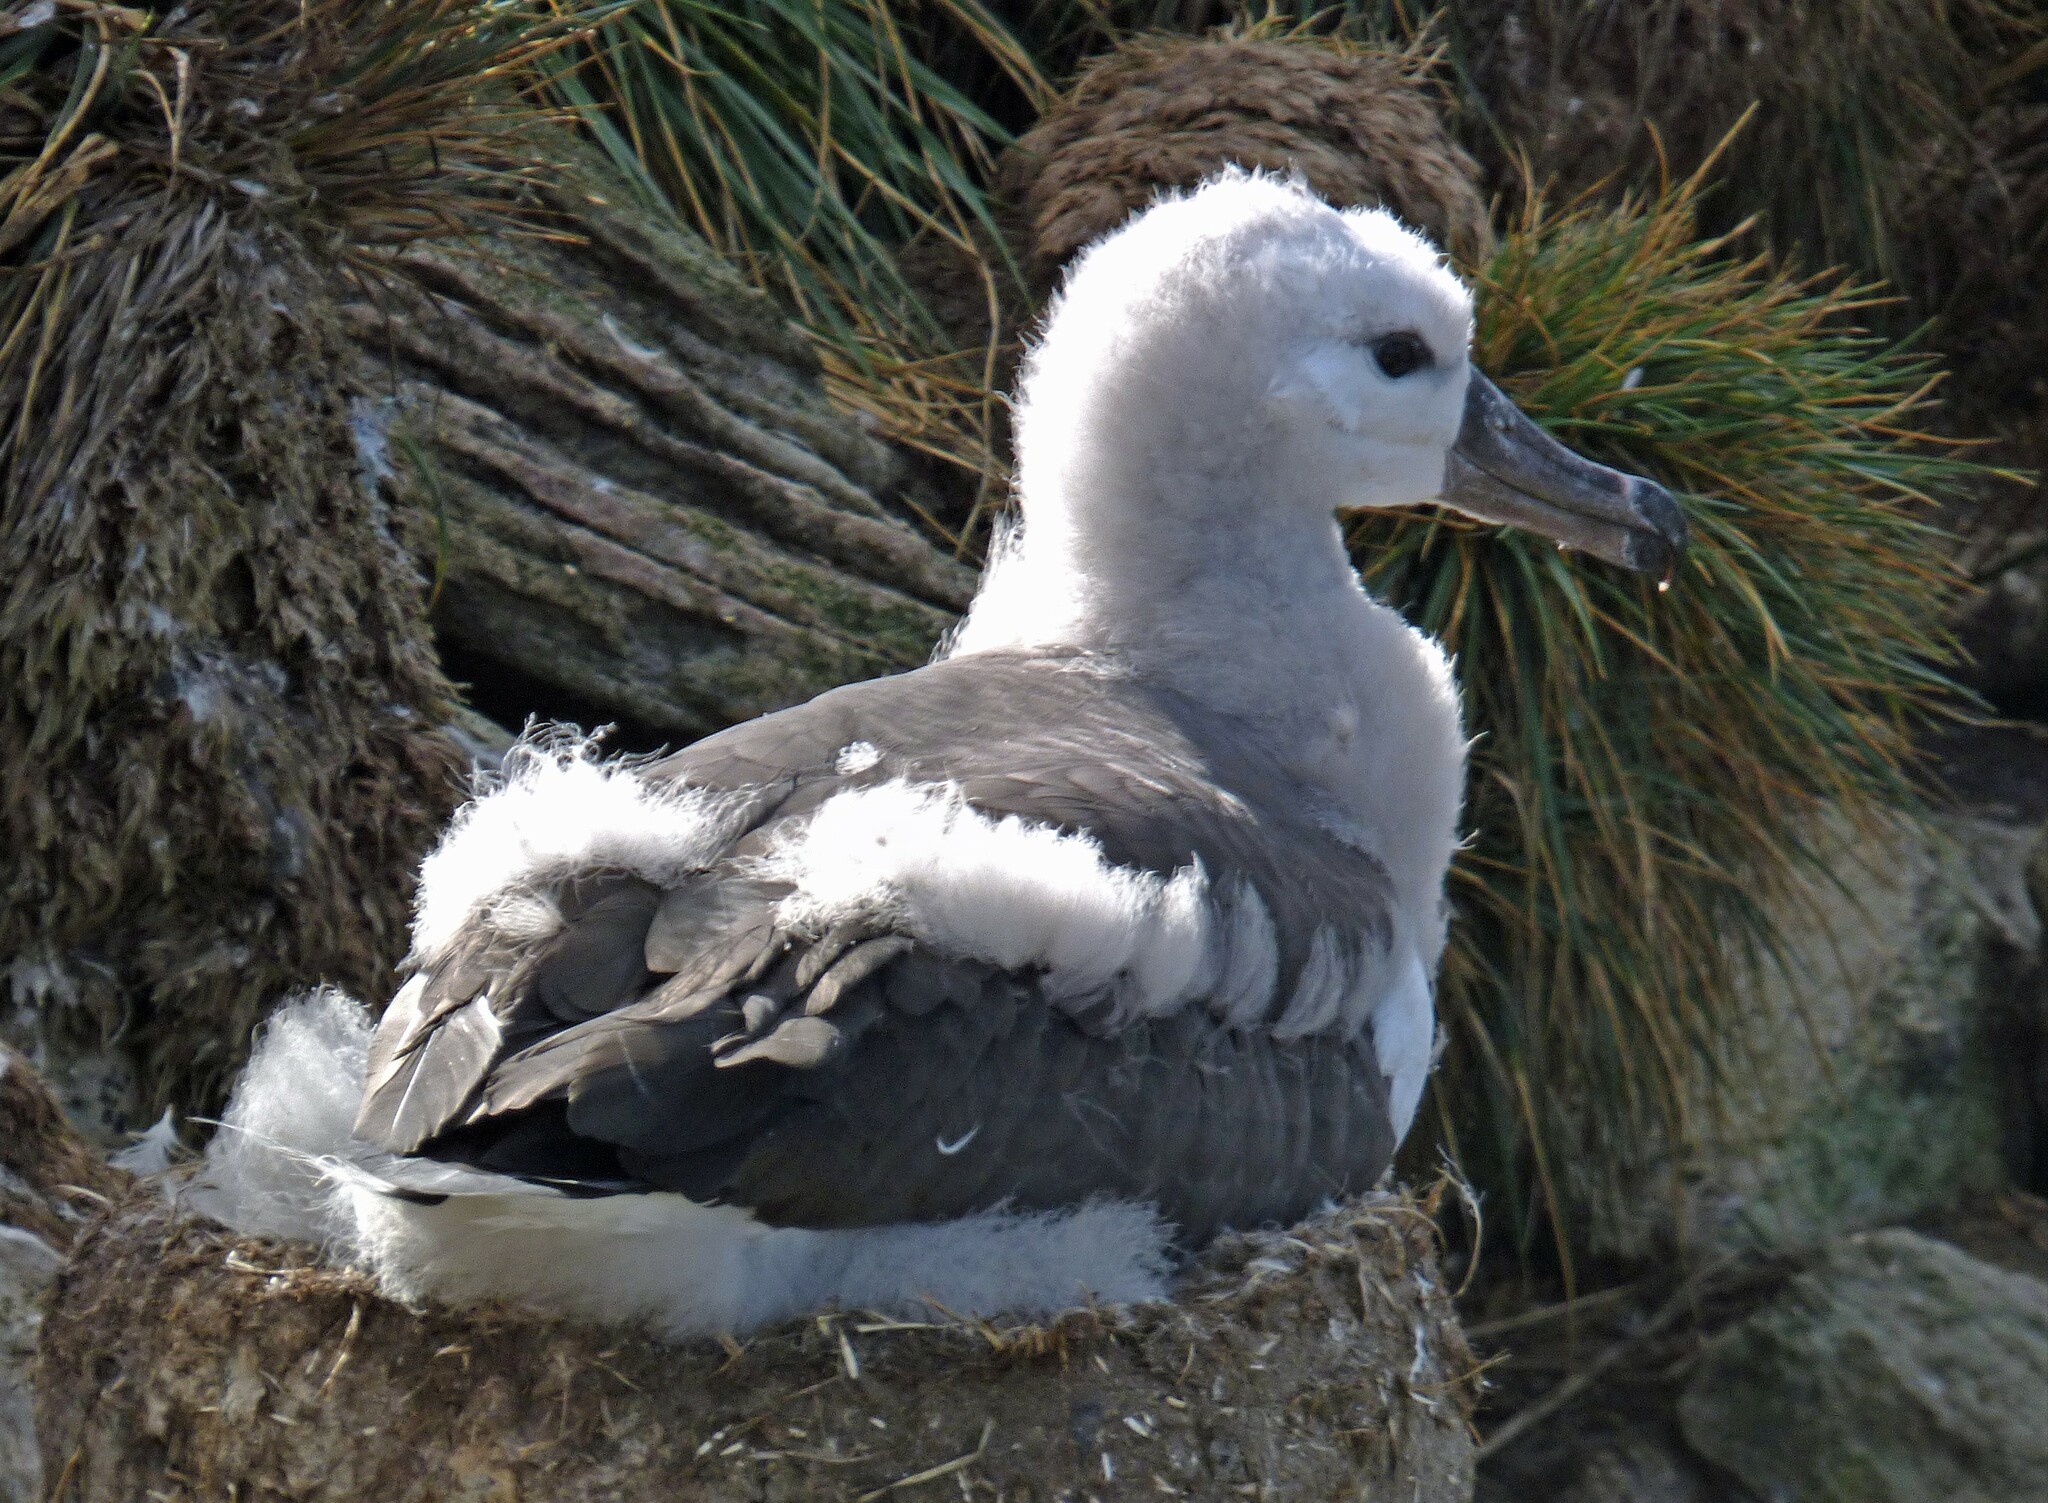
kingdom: Animalia
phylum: Chordata
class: Aves
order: Procellariiformes
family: Diomedeidae
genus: Thalassarche
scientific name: Thalassarche melanophris
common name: Black-browed albatross
